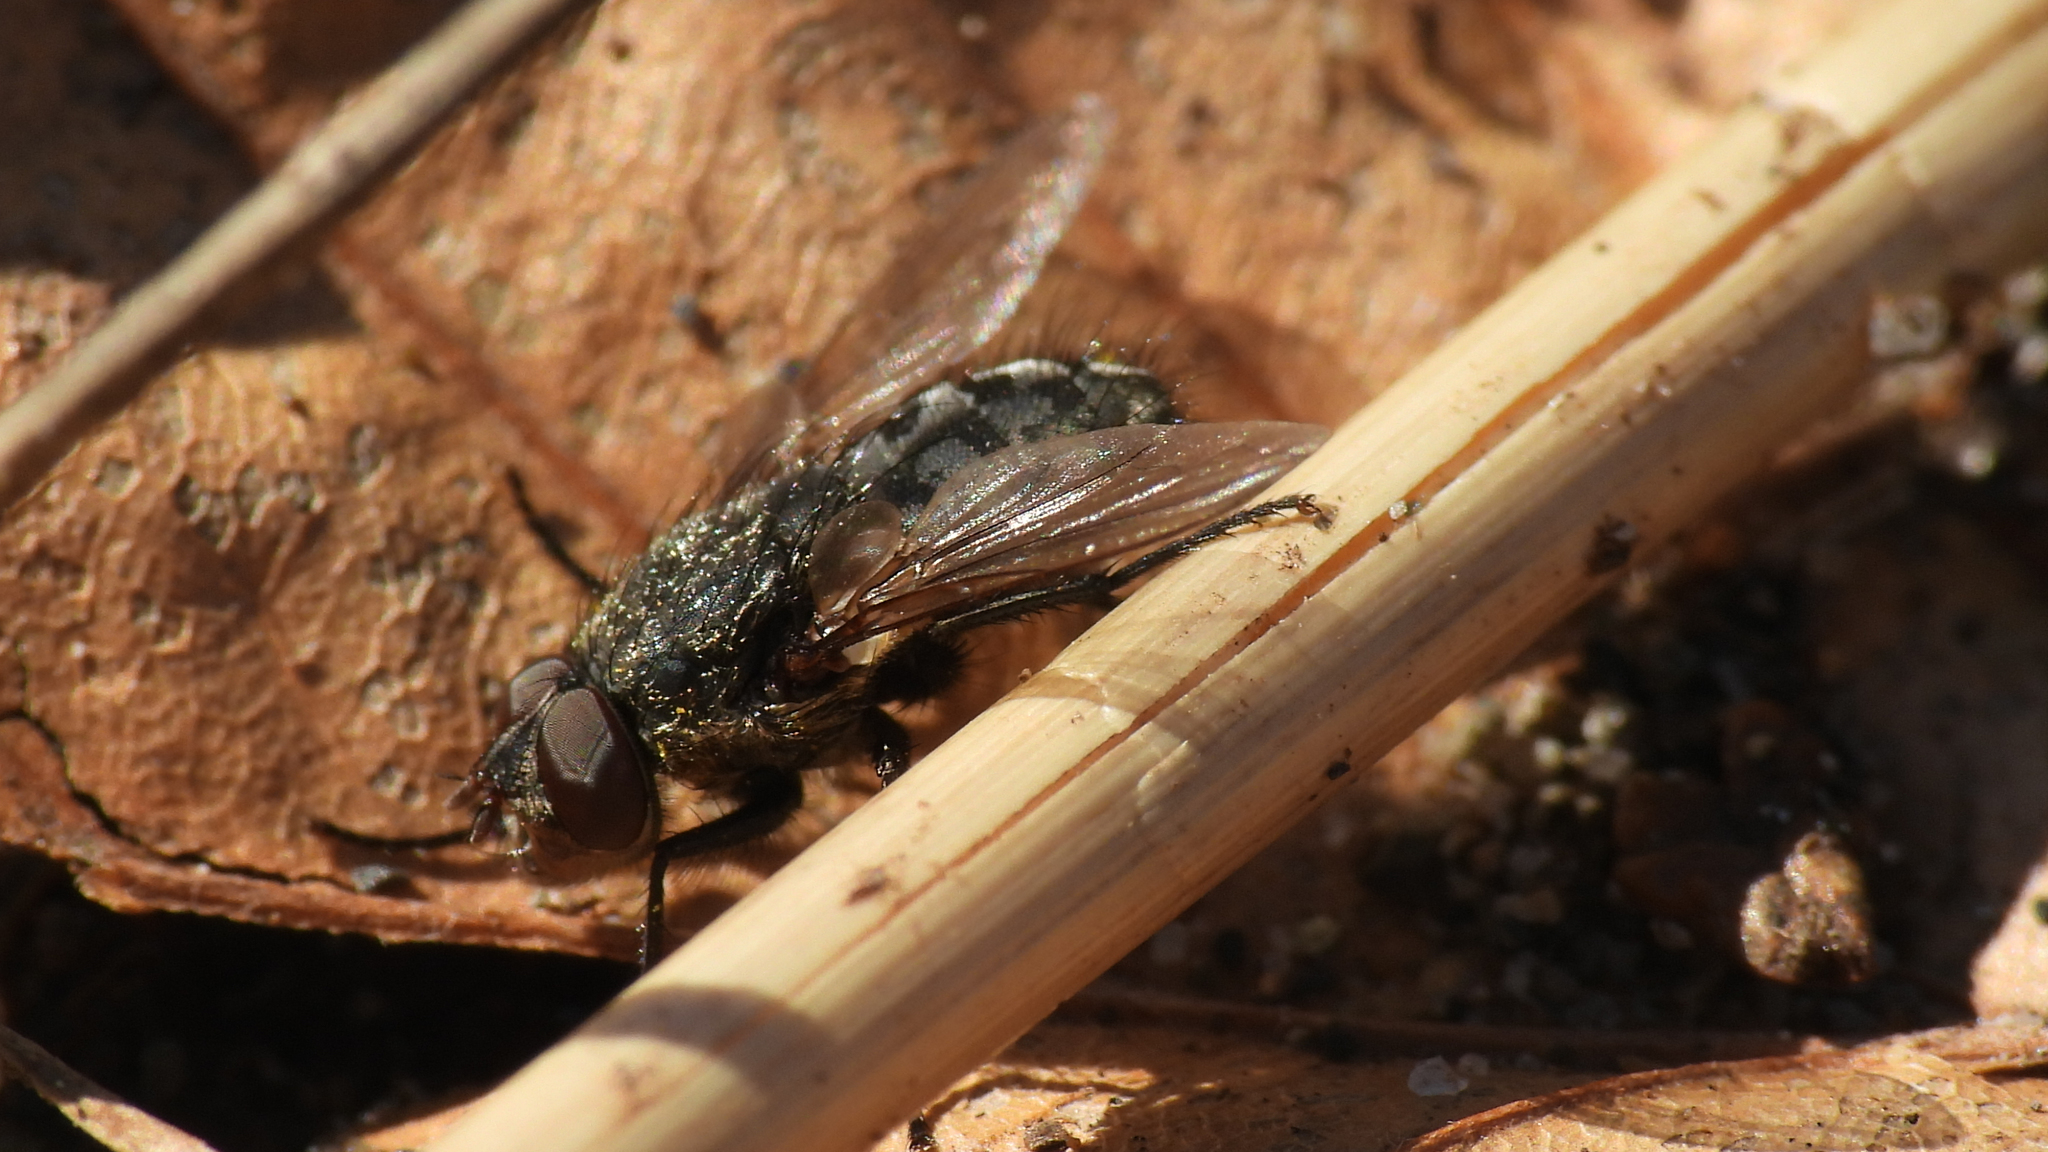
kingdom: Animalia
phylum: Arthropoda
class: Insecta
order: Diptera
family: Polleniidae
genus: Pollenia
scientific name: Pollenia
